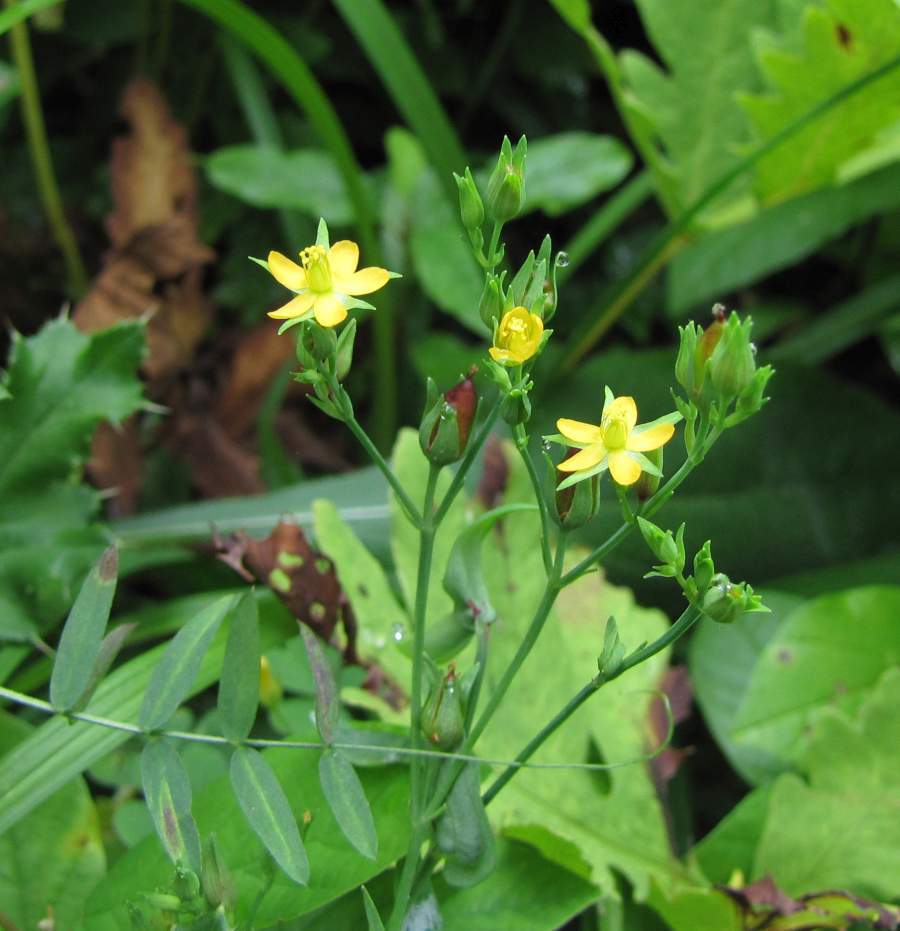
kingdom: Plantae
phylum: Tracheophyta
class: Magnoliopsida
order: Malpighiales
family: Hypericaceae
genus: Hypericum
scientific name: Hypericum majus
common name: Greater canadian st. john's-wort
